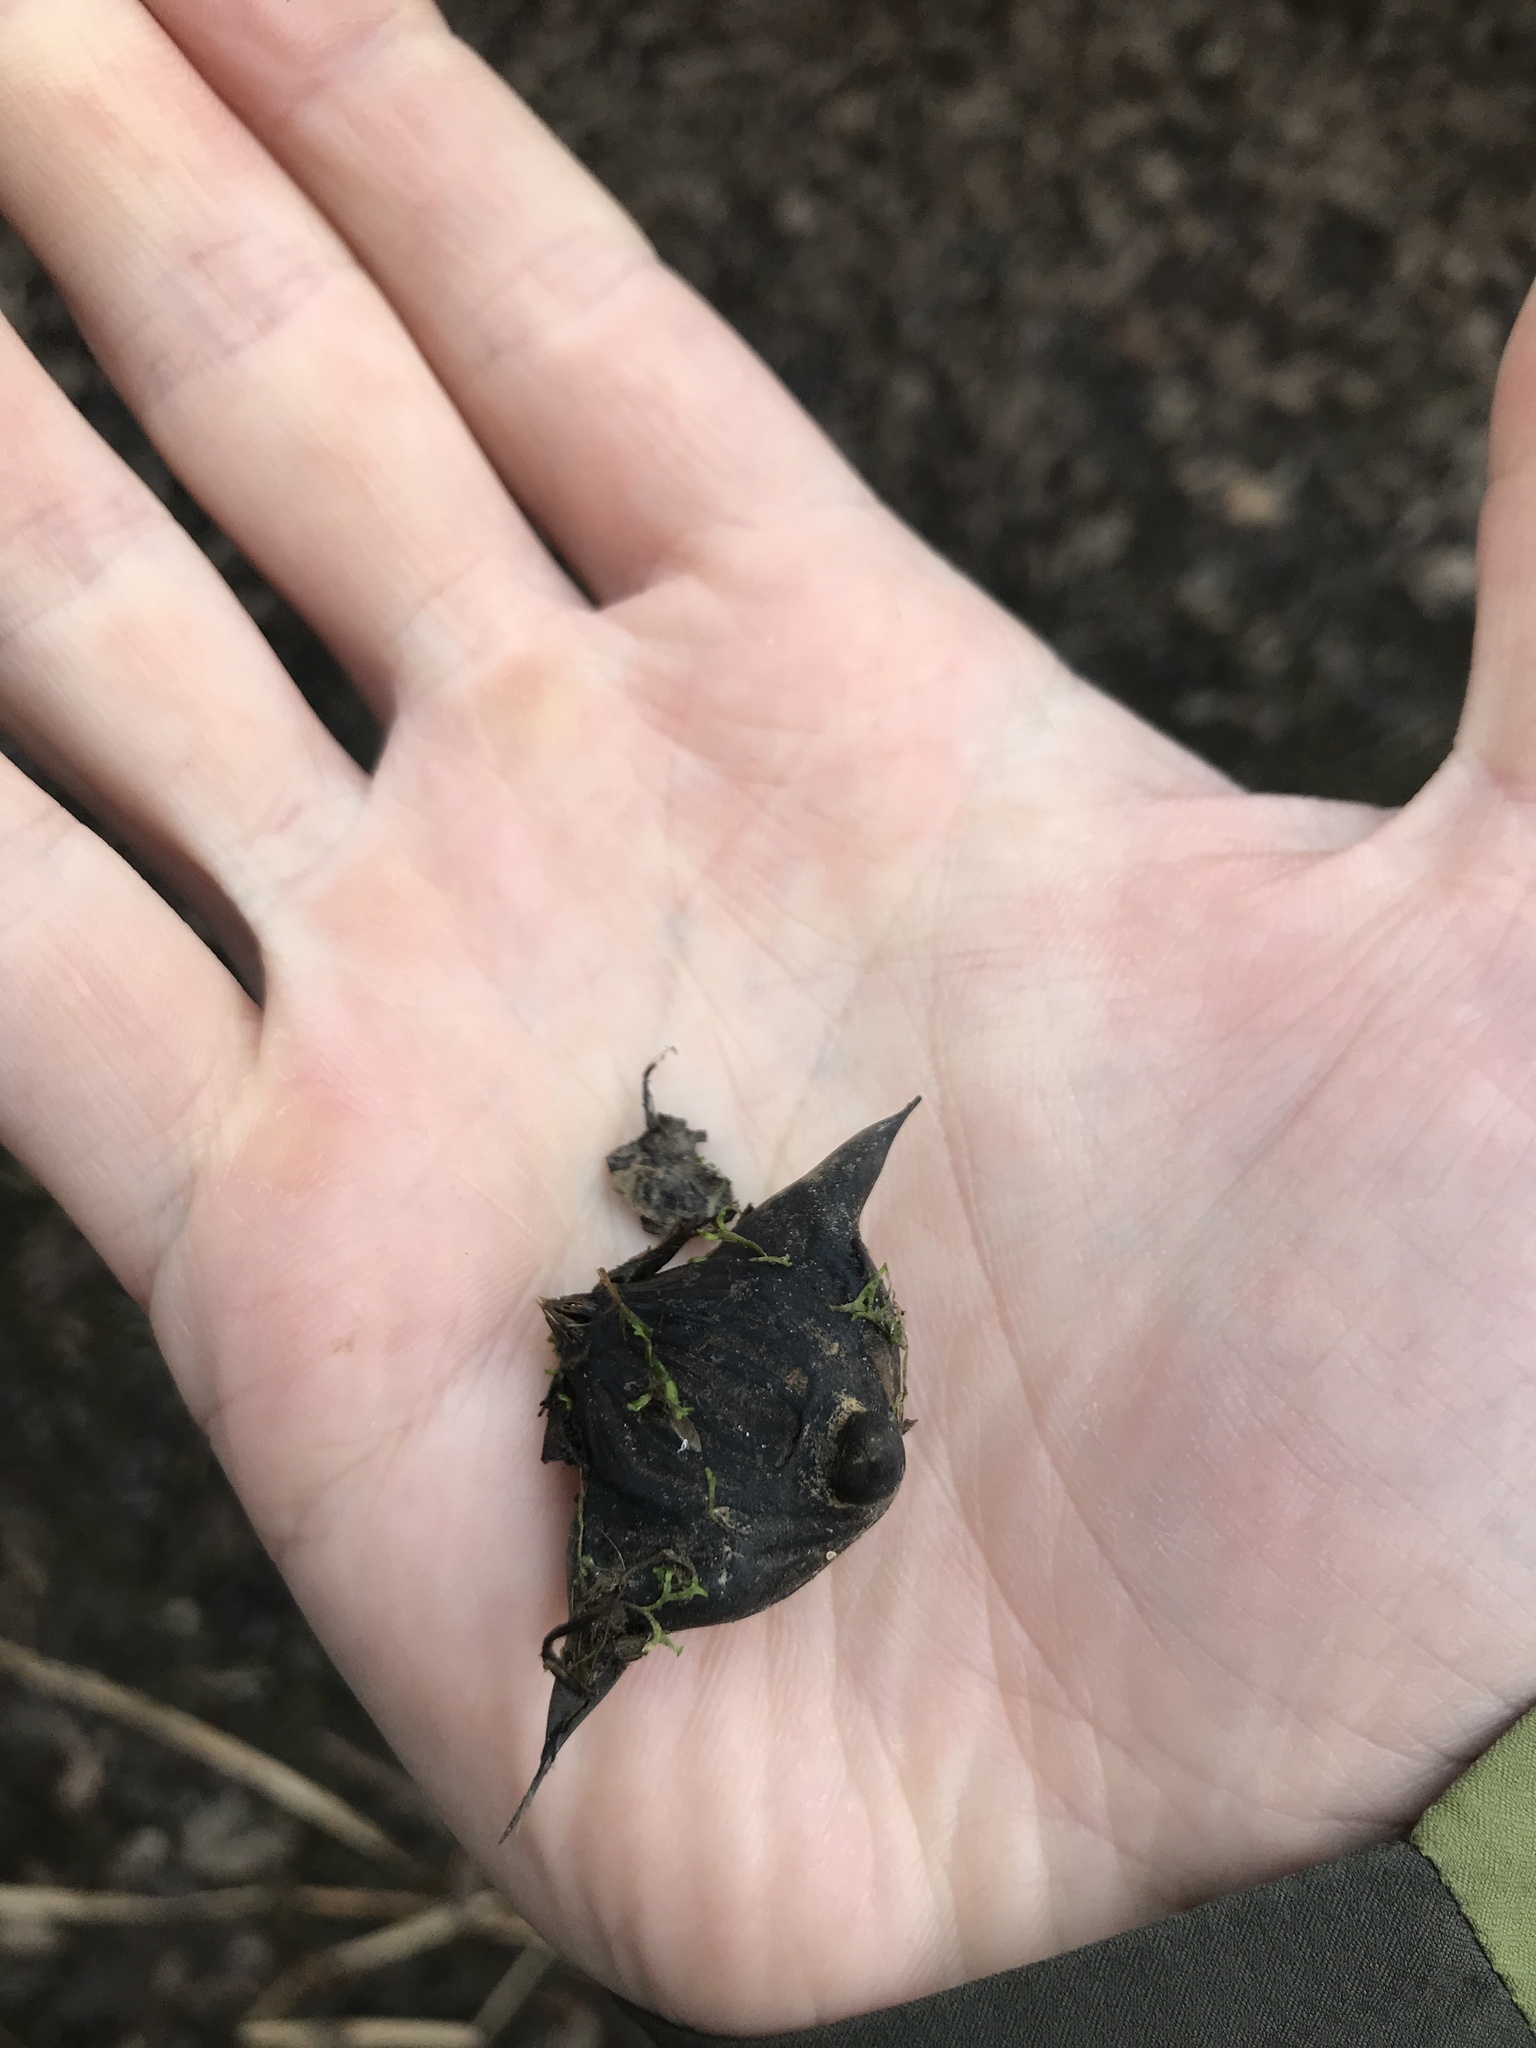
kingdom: Plantae
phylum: Tracheophyta
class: Magnoliopsida
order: Myrtales
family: Lythraceae
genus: Trapa
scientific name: Trapa natans
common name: Water chestnut
